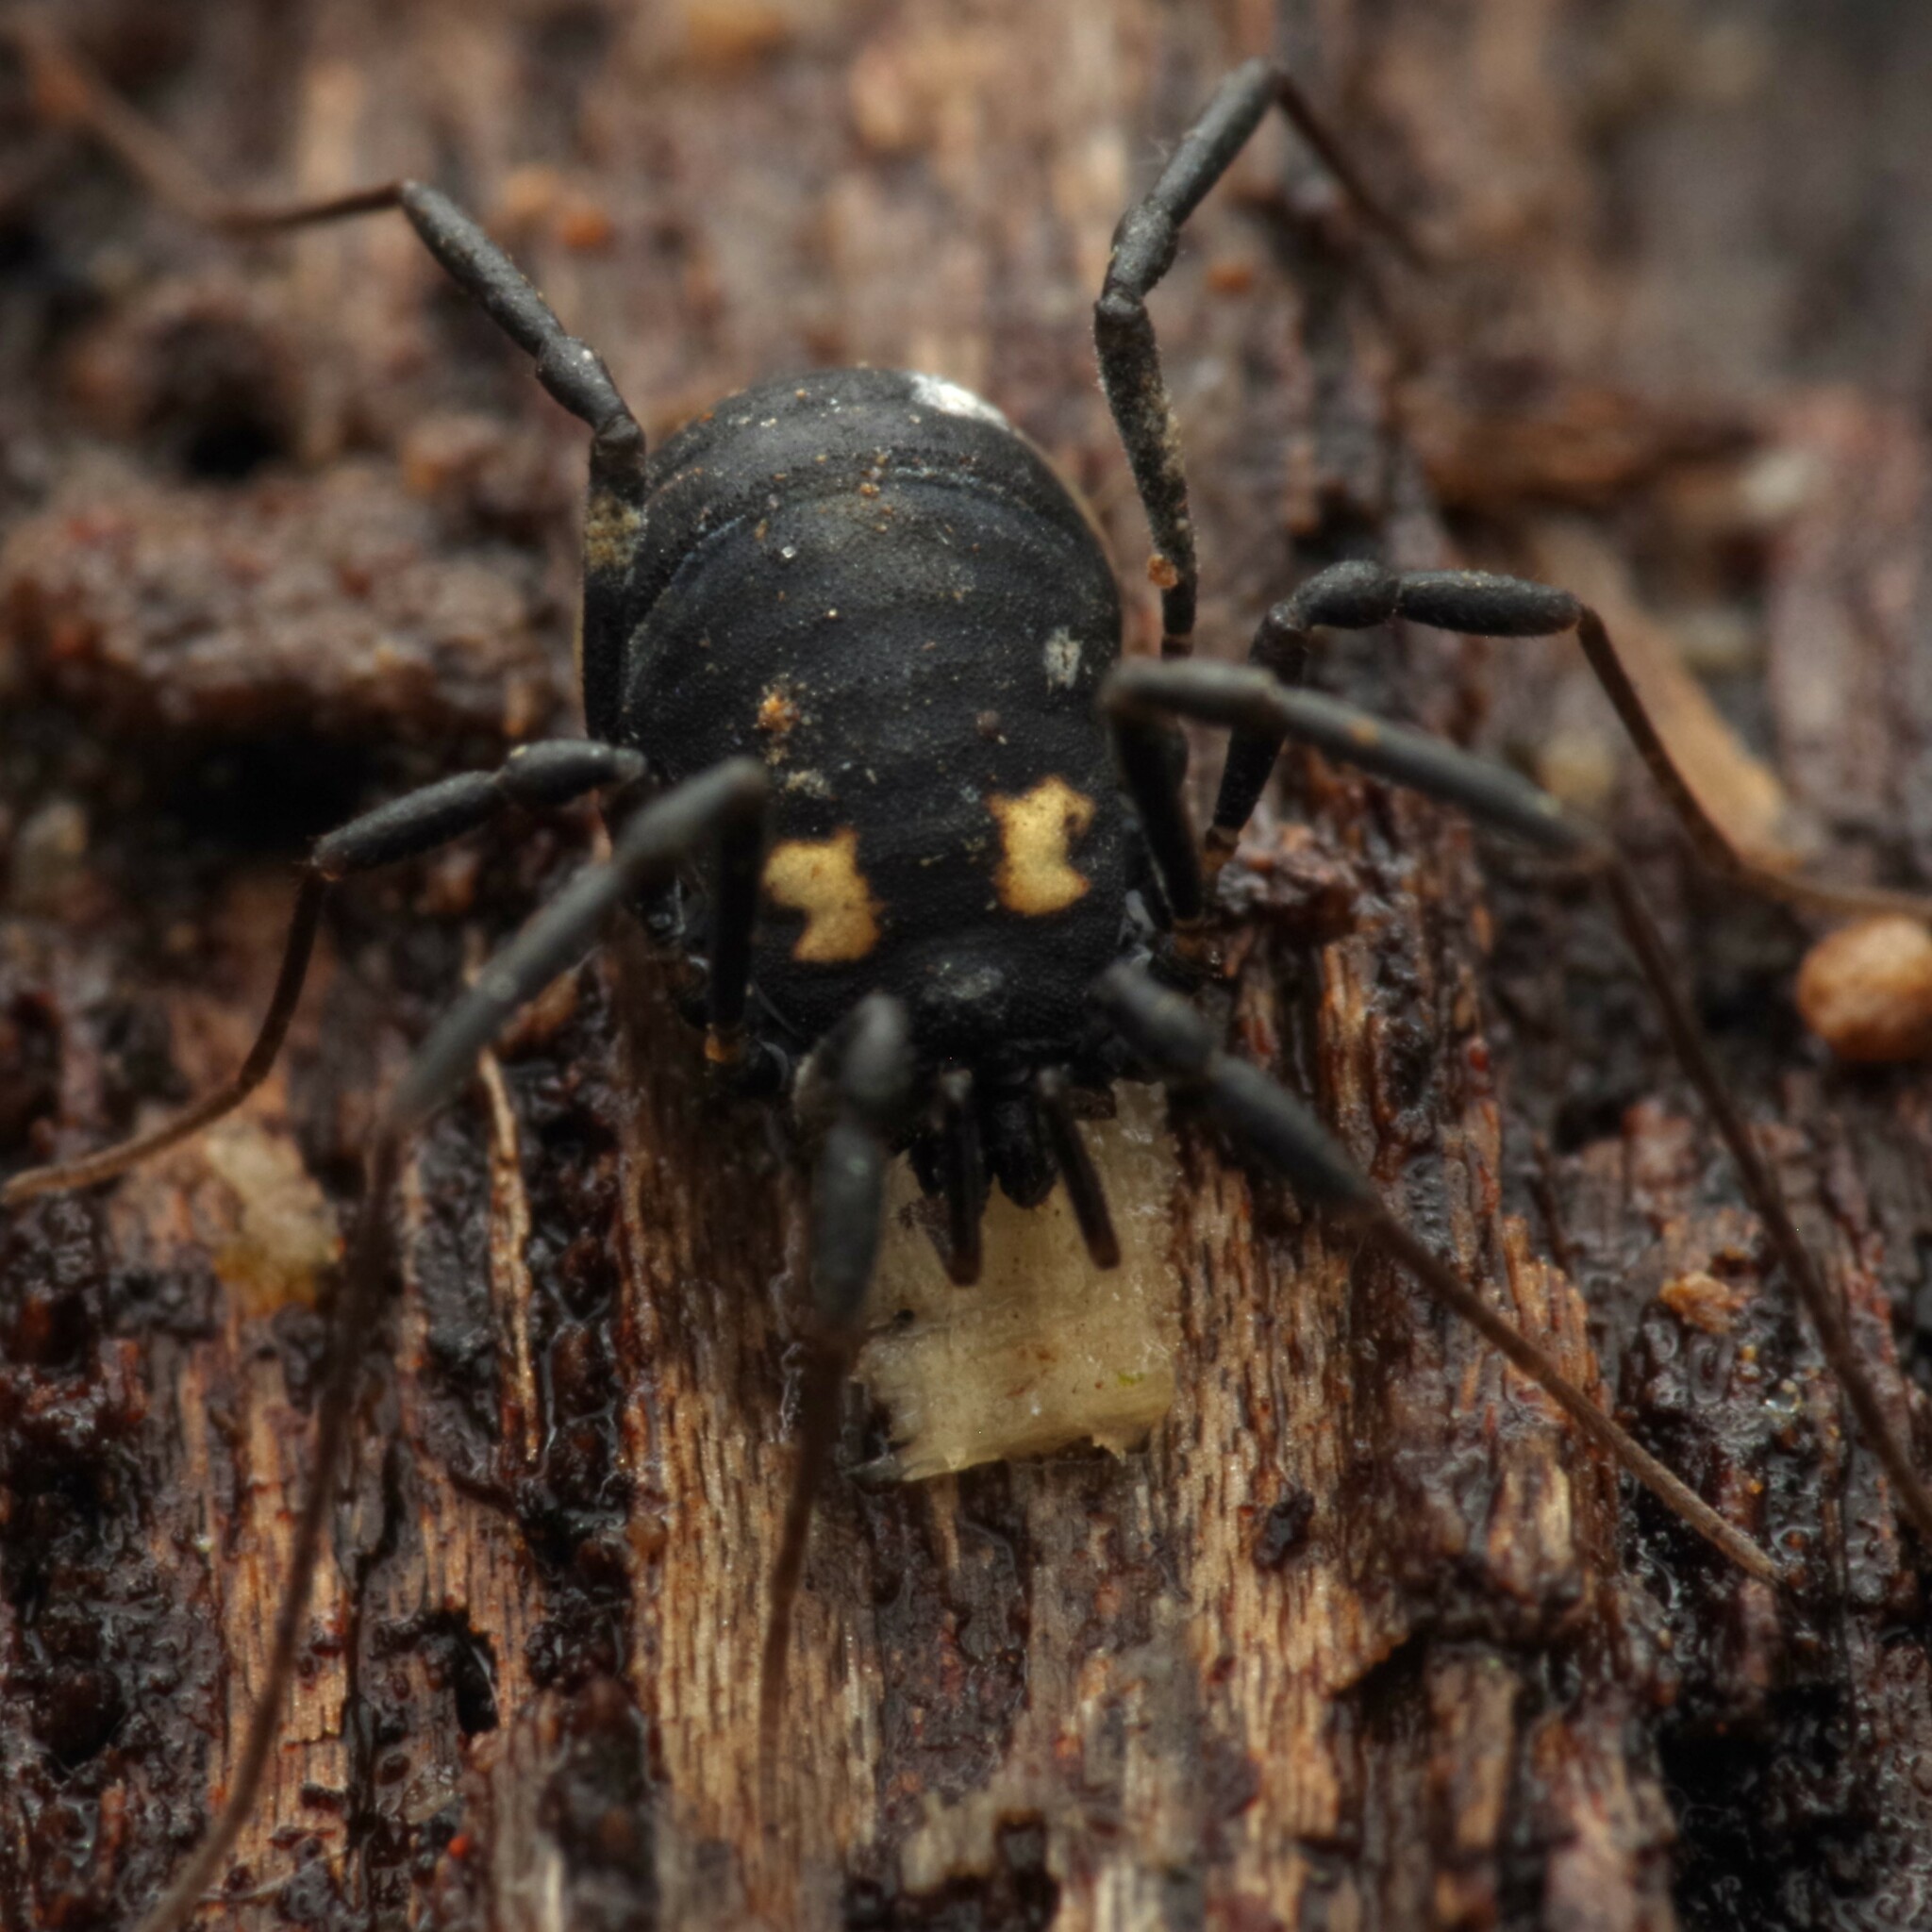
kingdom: Animalia
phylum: Arthropoda
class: Arachnida
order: Opiliones
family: Nemastomatidae
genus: Nemastoma
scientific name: Nemastoma bimaculatum
